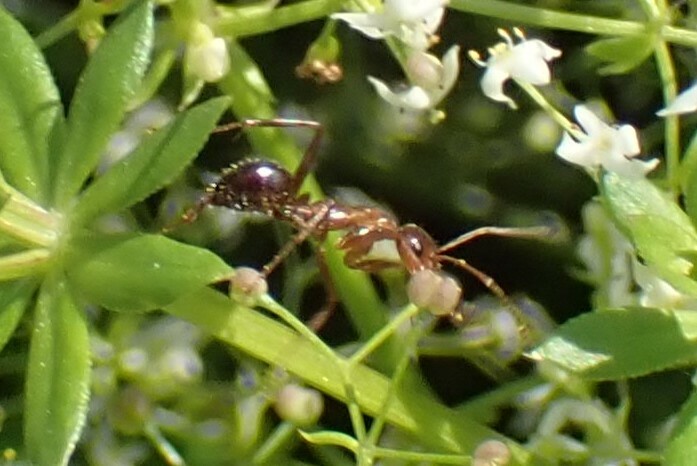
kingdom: Animalia
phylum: Arthropoda
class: Insecta
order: Hymenoptera
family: Formicidae
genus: Formica
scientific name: Formica
